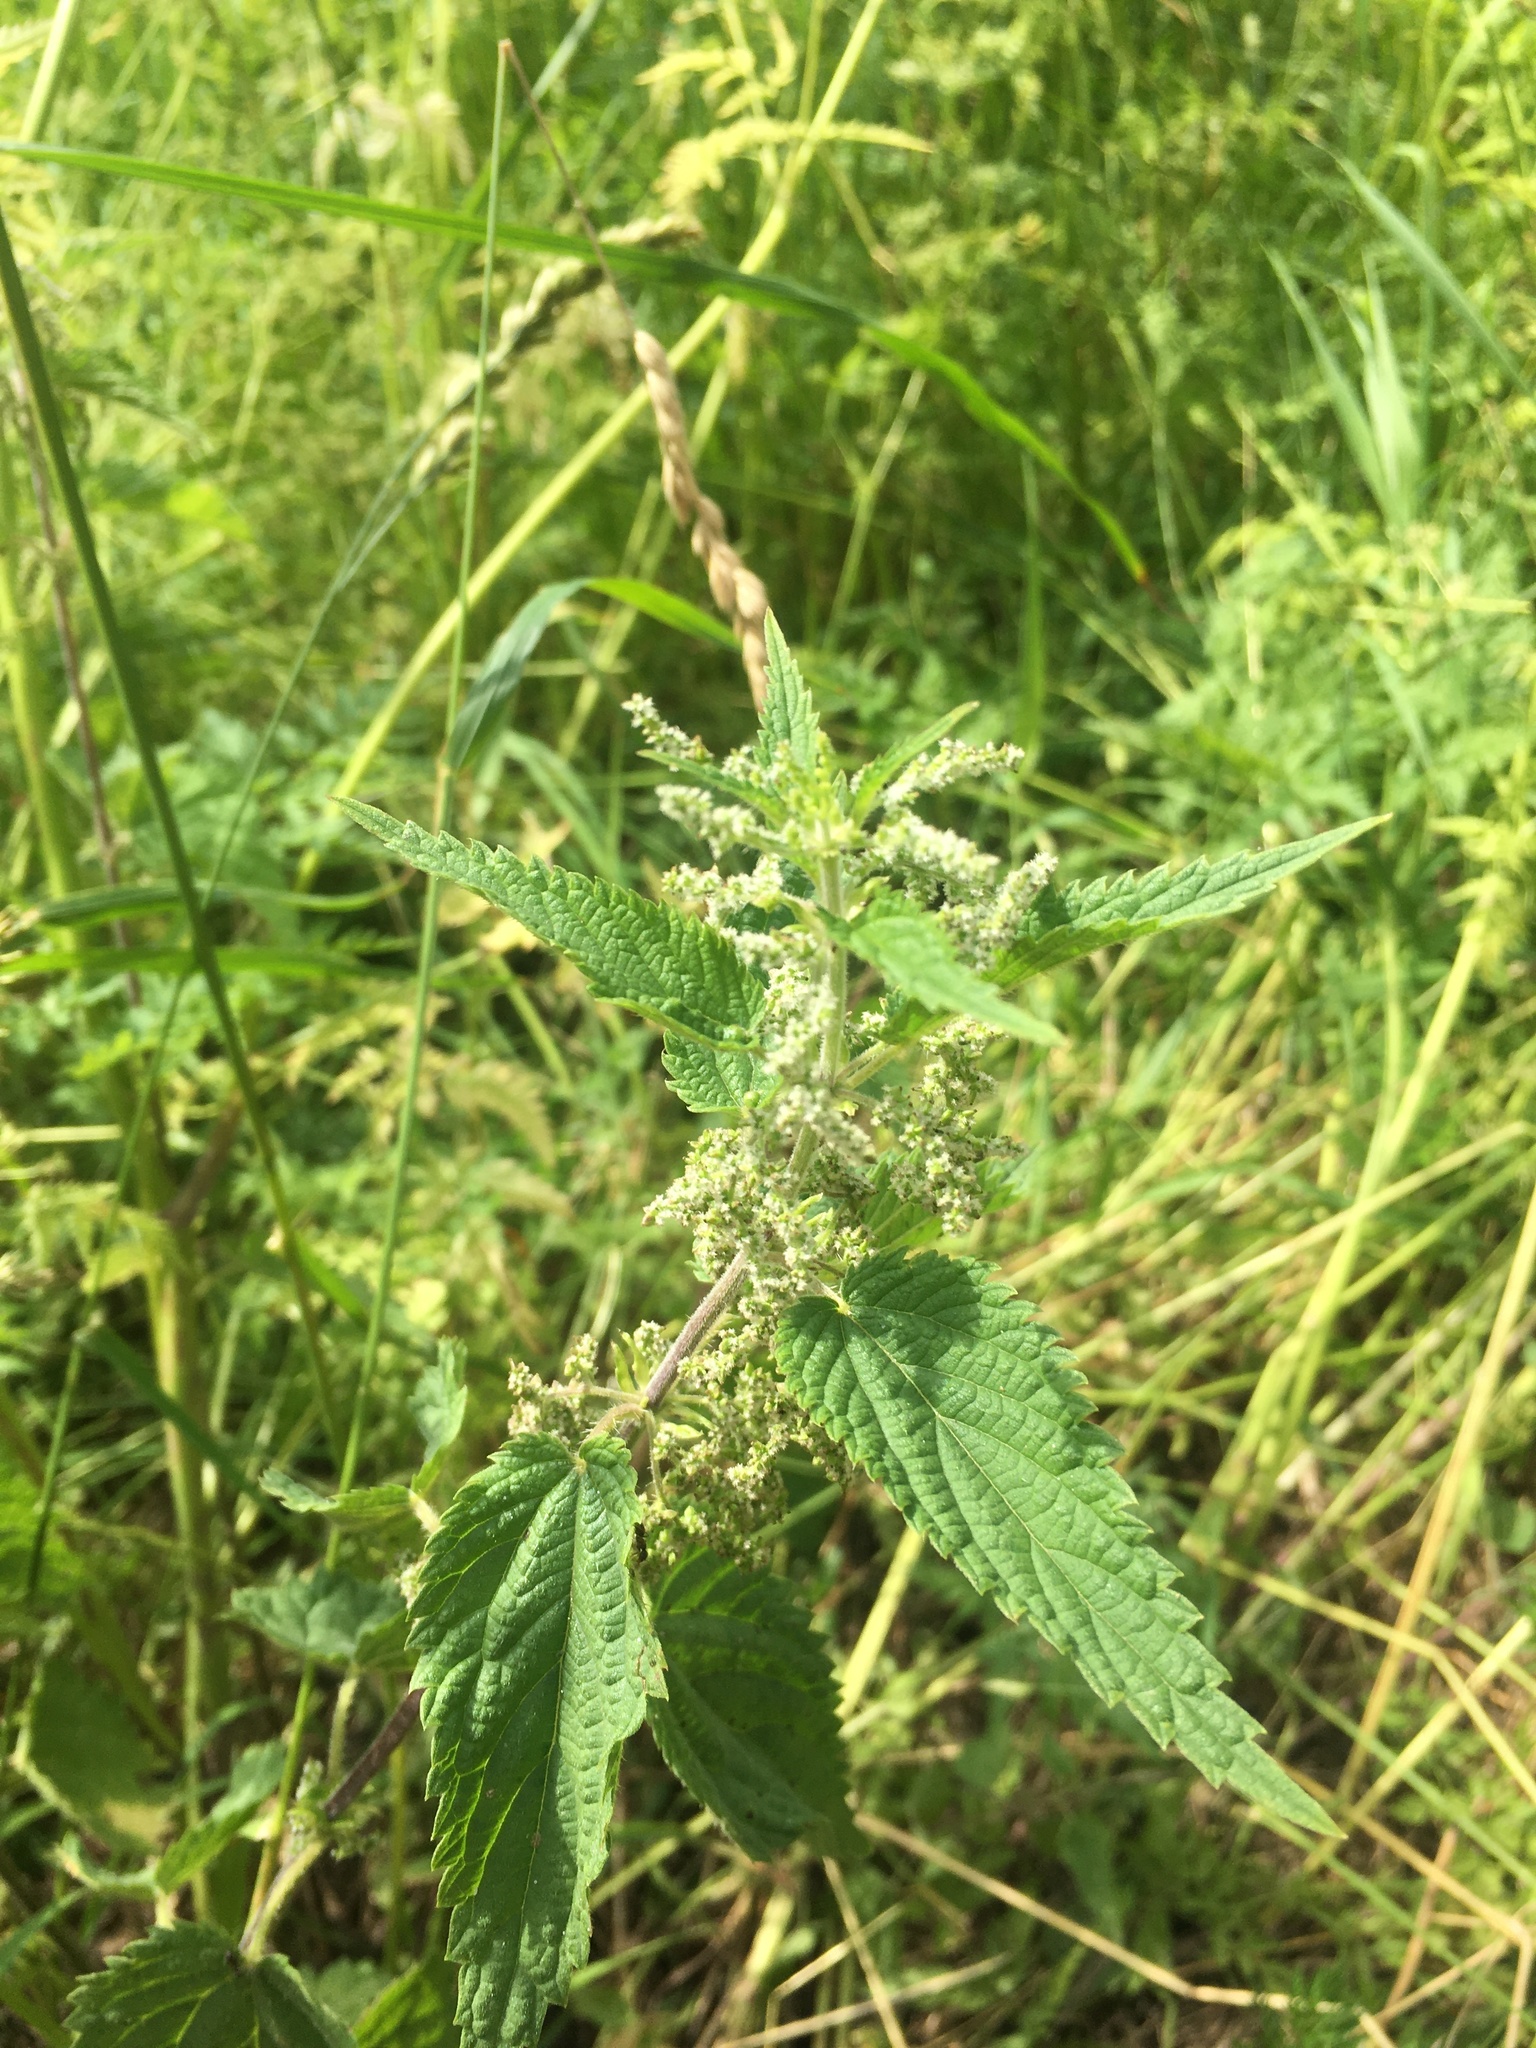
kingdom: Plantae
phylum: Tracheophyta
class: Magnoliopsida
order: Rosales
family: Urticaceae
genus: Urtica
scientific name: Urtica dioica
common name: Common nettle
